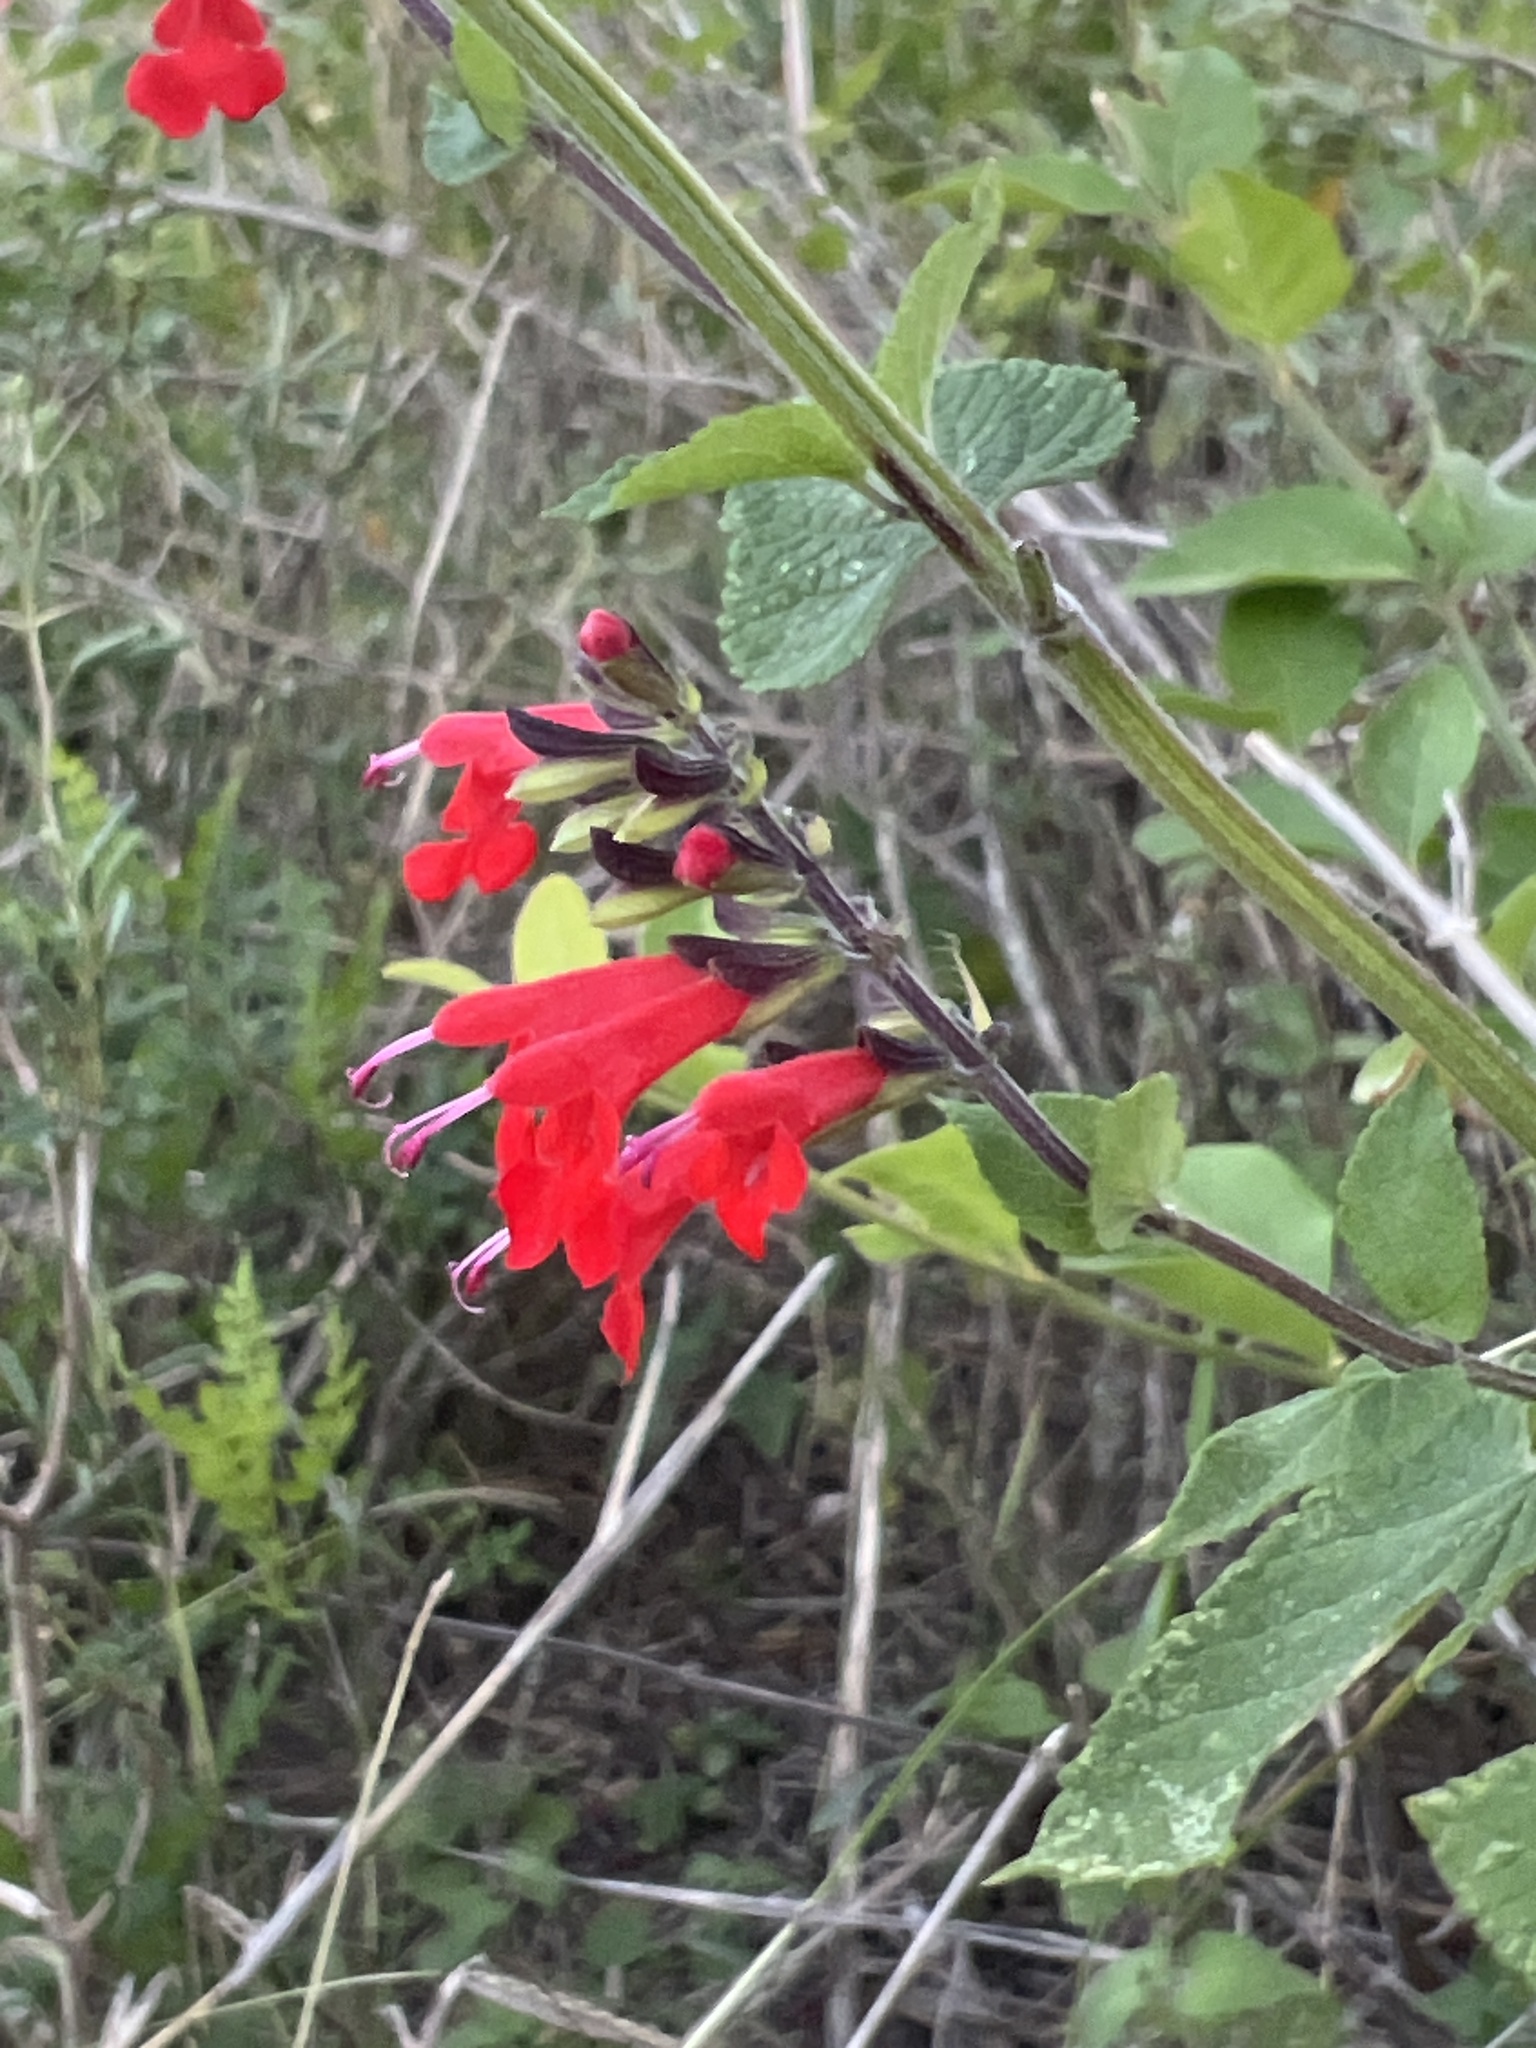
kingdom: Plantae
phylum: Tracheophyta
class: Magnoliopsida
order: Lamiales
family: Lamiaceae
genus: Salvia
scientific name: Salvia coccinea
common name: Blood sage
